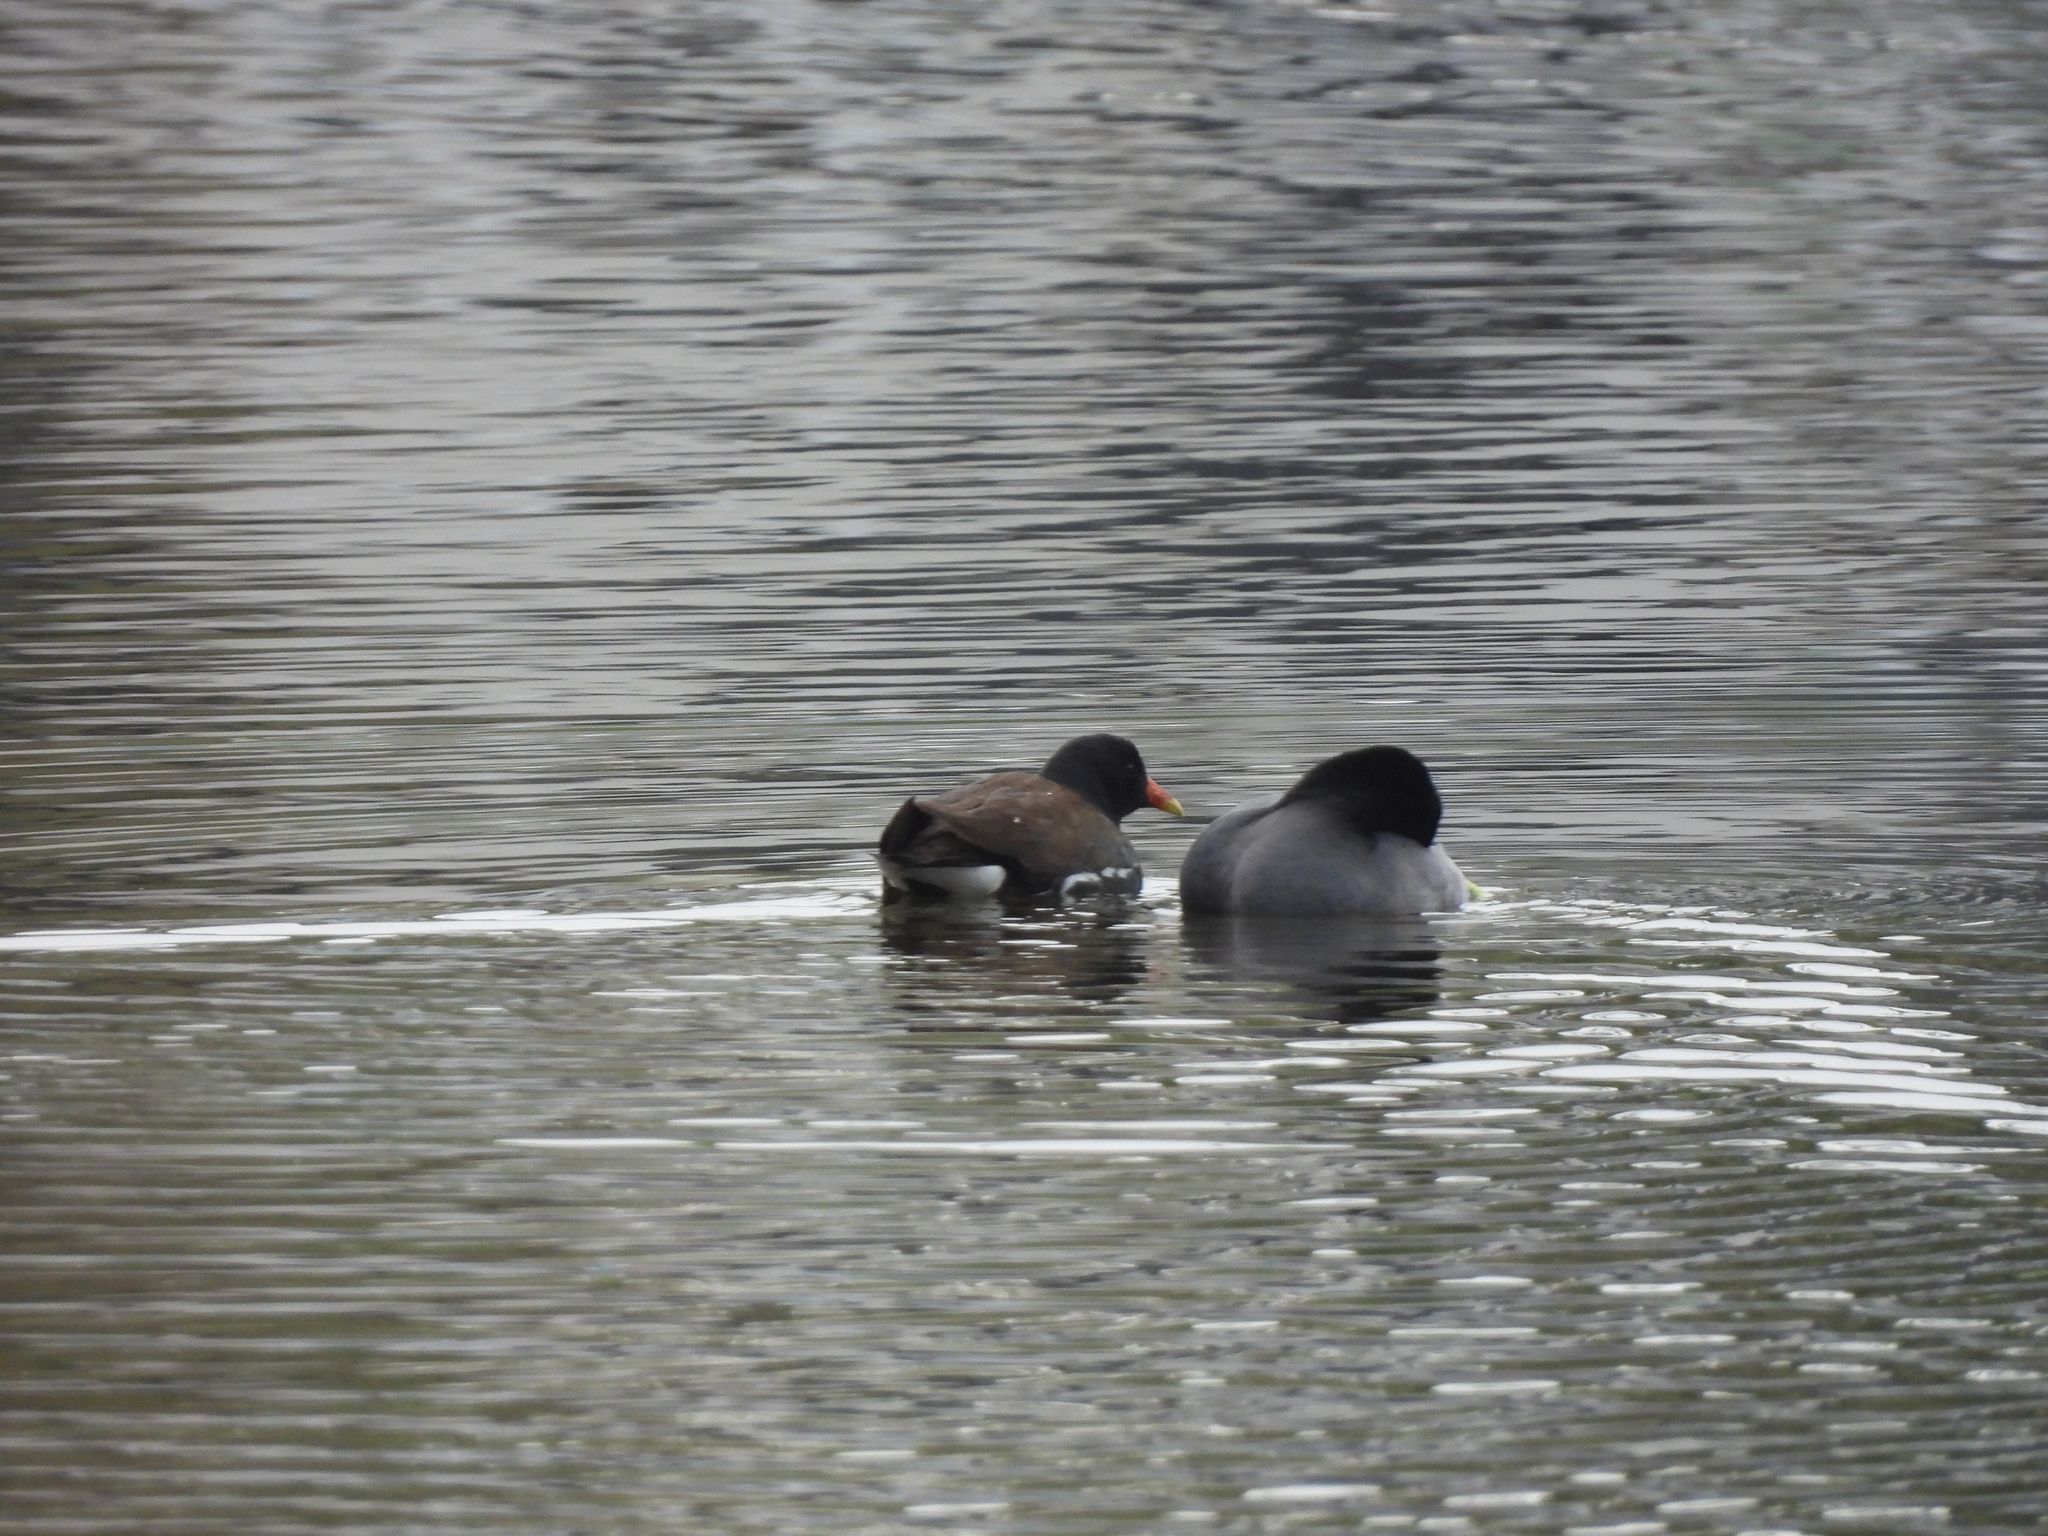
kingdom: Animalia
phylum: Chordata
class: Aves
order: Gruiformes
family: Rallidae
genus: Gallinula
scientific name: Gallinula chloropus
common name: Common moorhen
